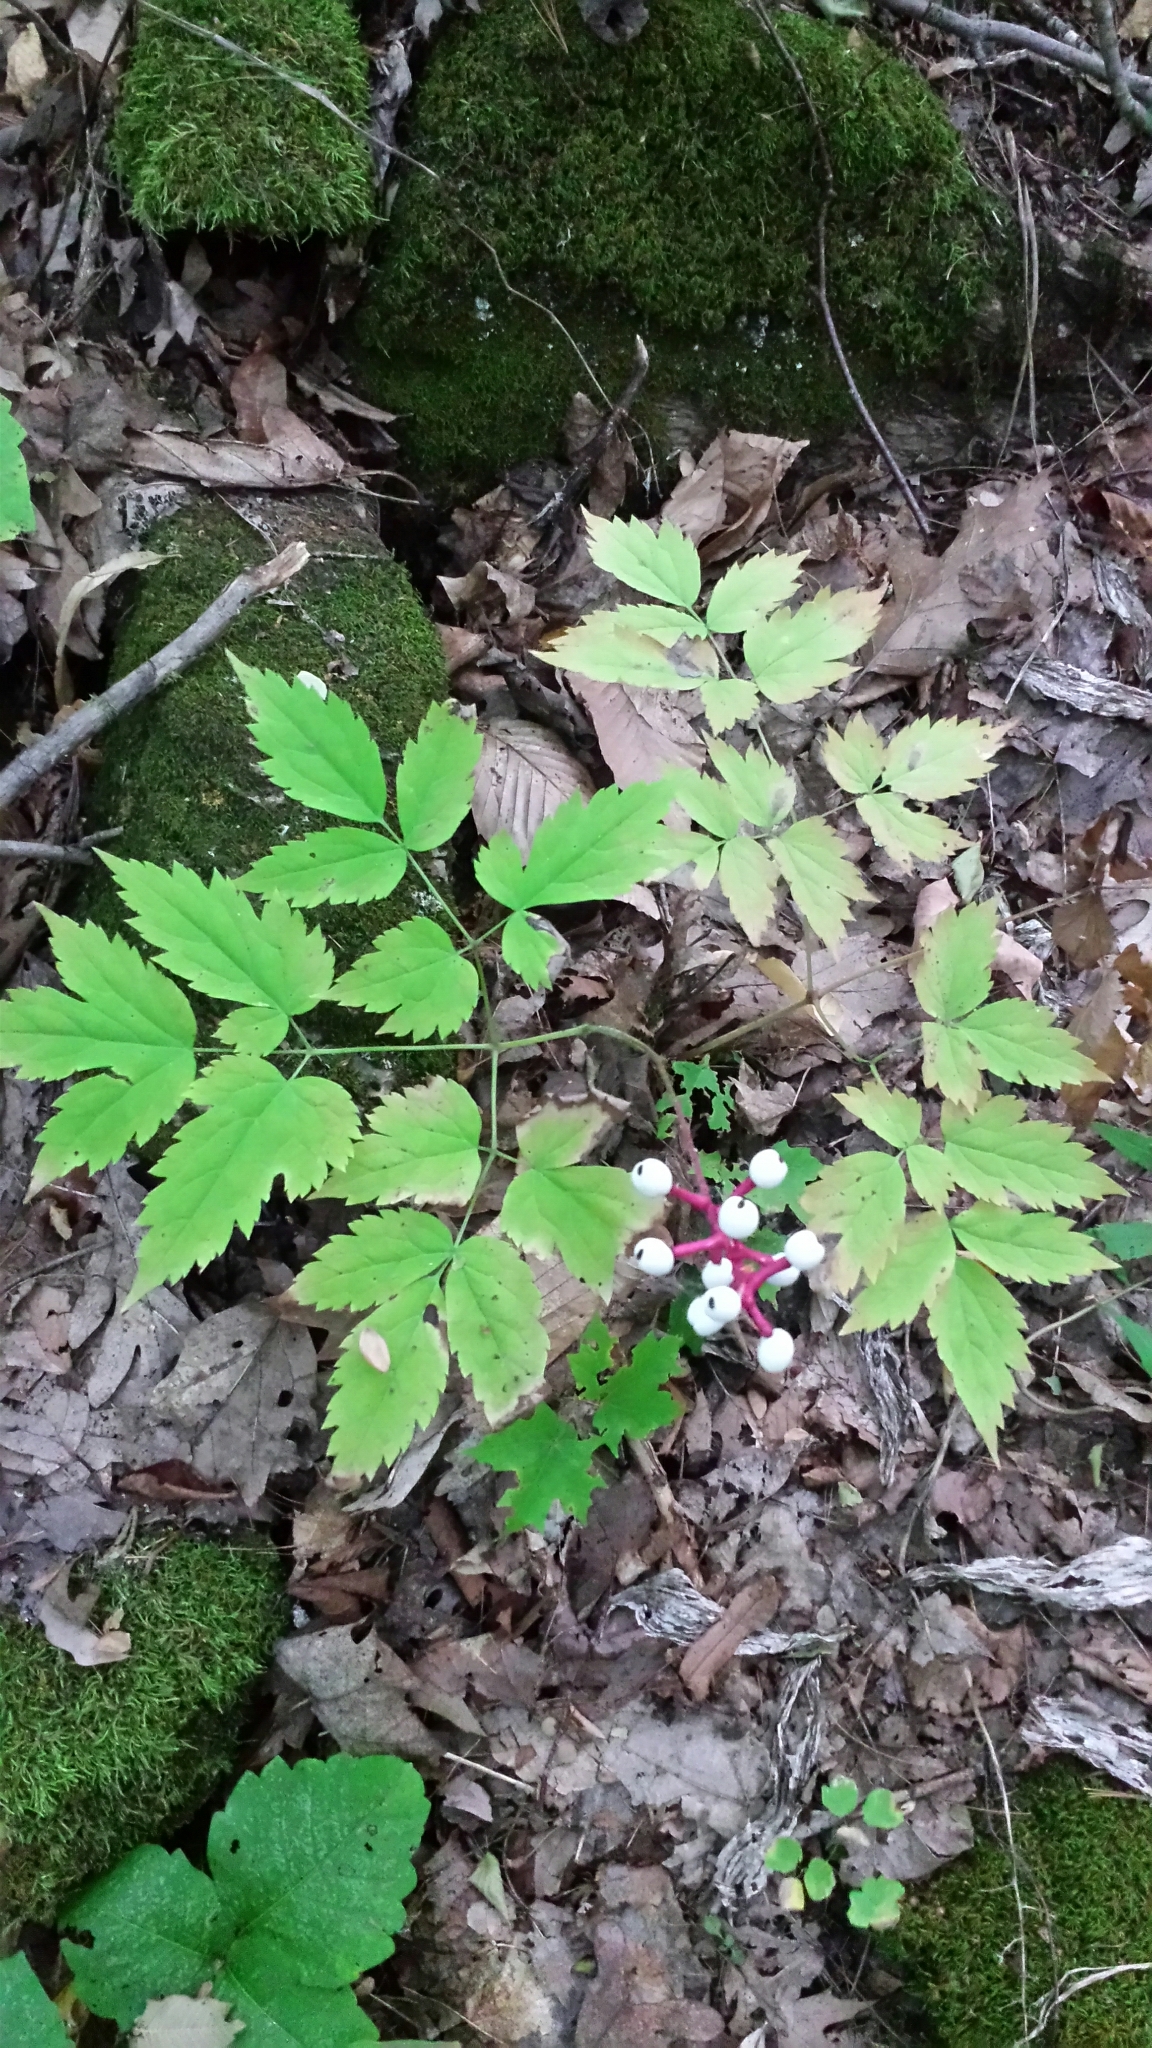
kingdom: Plantae
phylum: Tracheophyta
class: Magnoliopsida
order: Ranunculales
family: Ranunculaceae
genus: Actaea
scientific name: Actaea pachypoda
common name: Doll's-eyes
